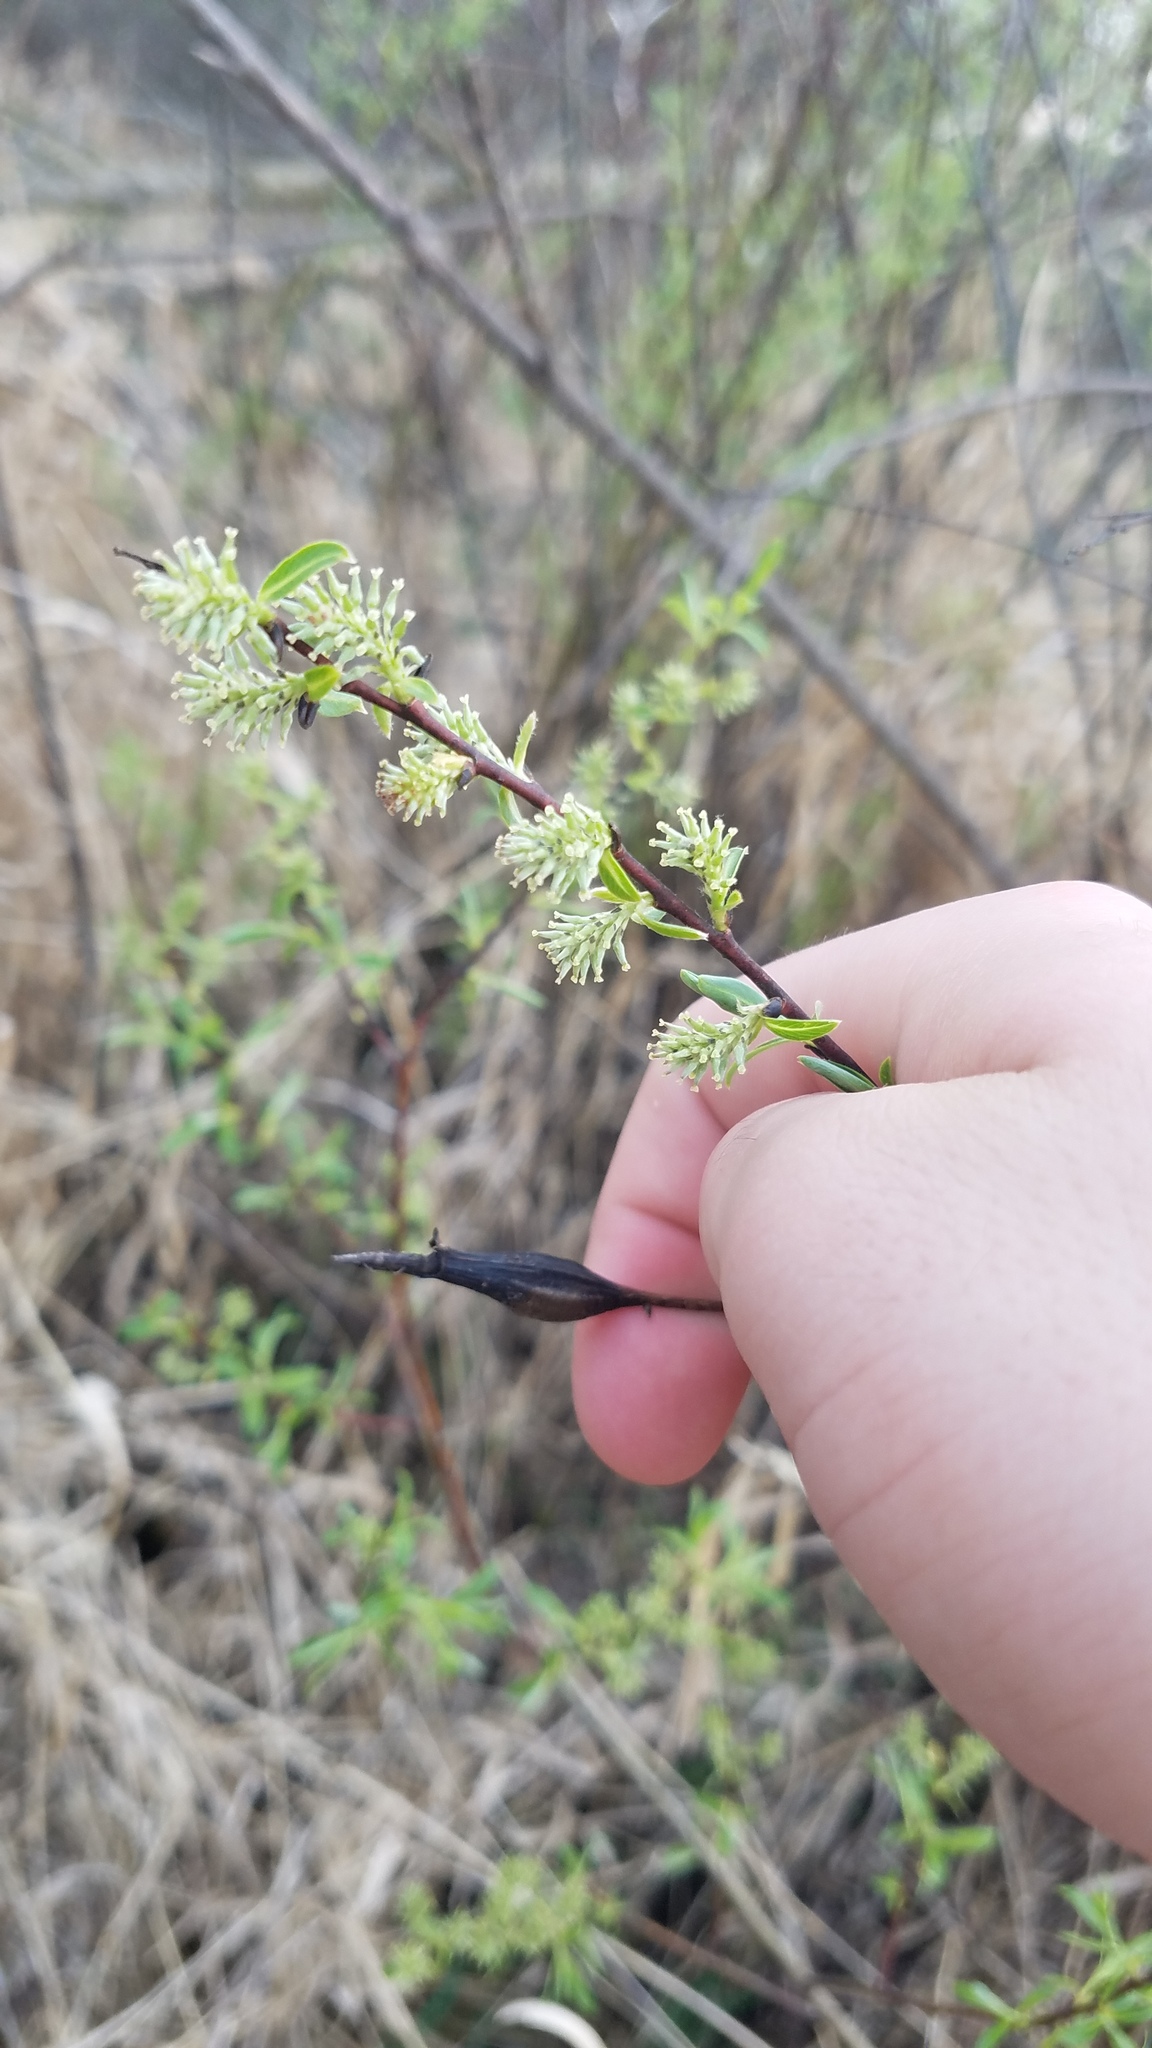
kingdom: Animalia
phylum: Arthropoda
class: Insecta
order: Diptera
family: Cecidomyiidae
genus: Thecodiplosis
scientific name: Thecodiplosis pinirigidae
